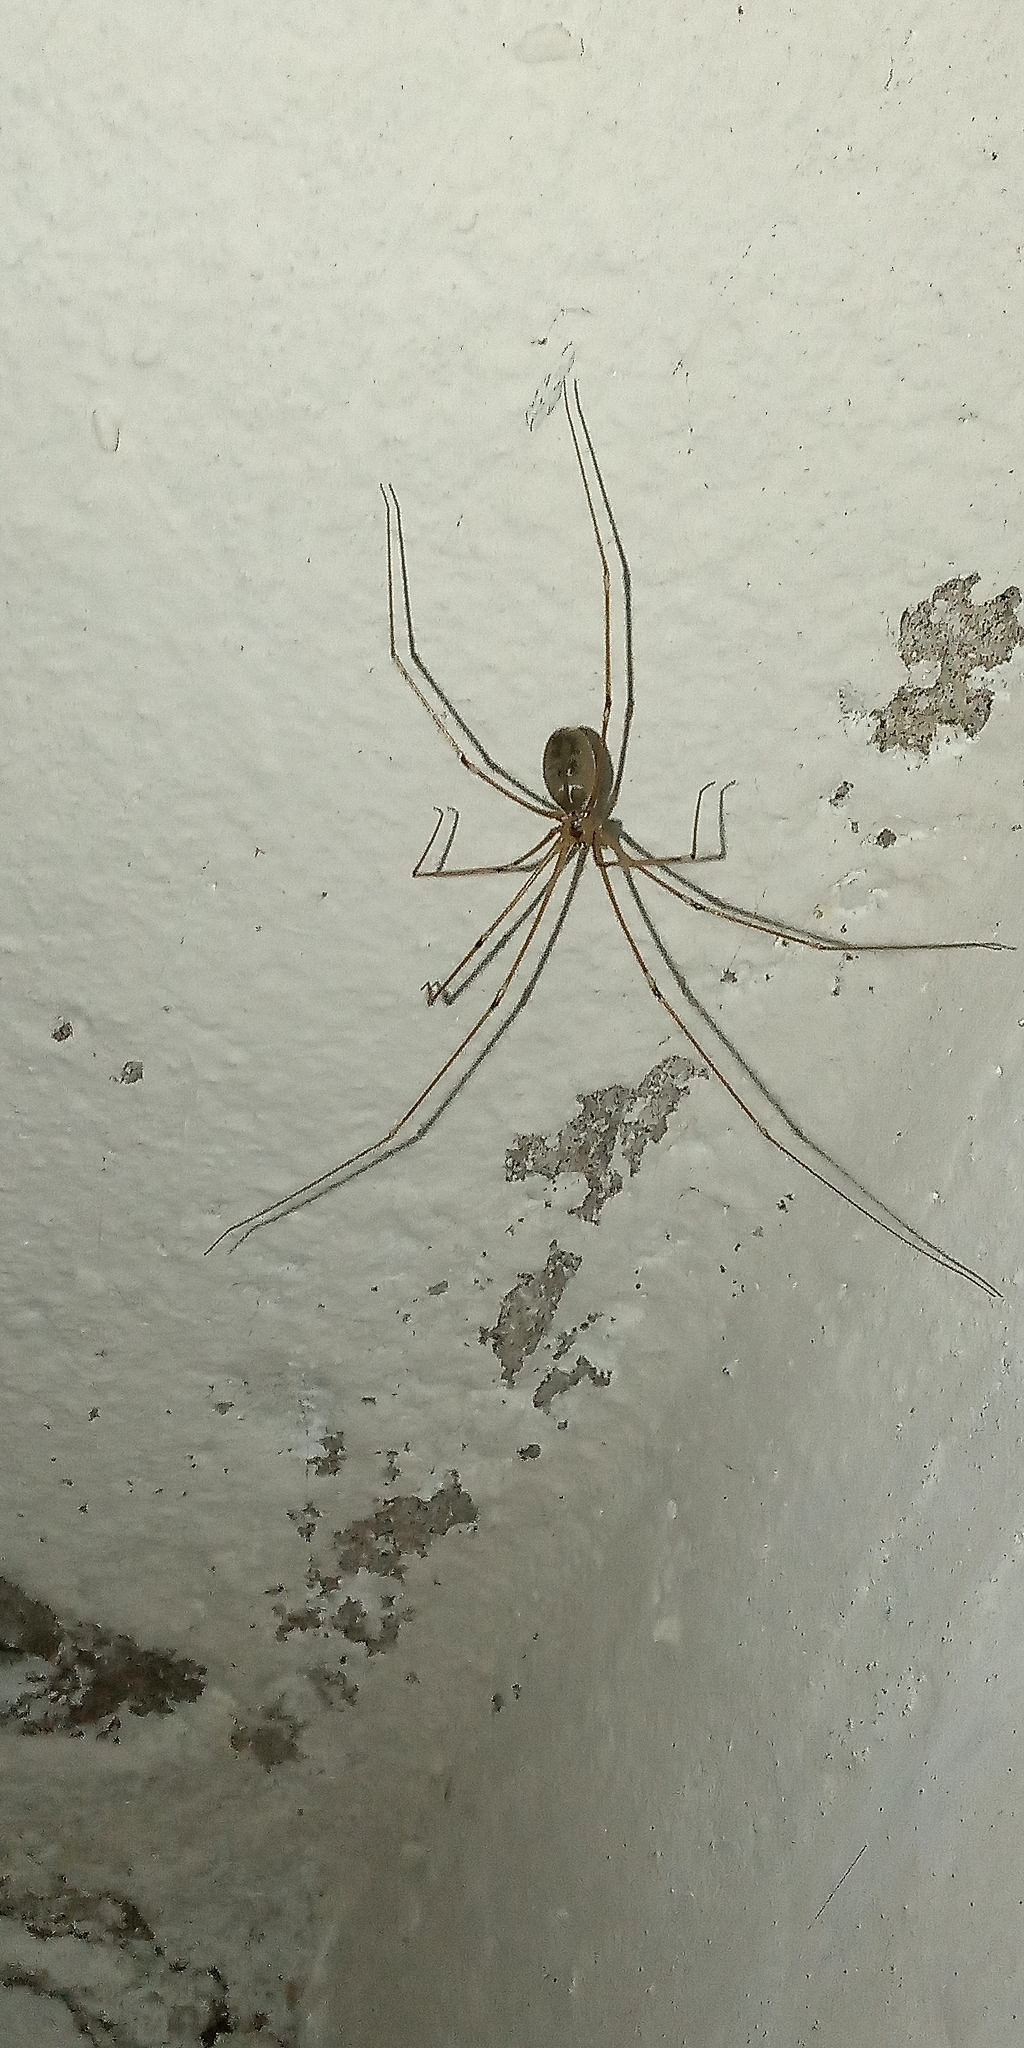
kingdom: Animalia
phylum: Arthropoda
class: Arachnida
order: Araneae
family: Pholcidae
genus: Pholcus
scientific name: Pholcus phalangioides
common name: Longbodied cellar spider
